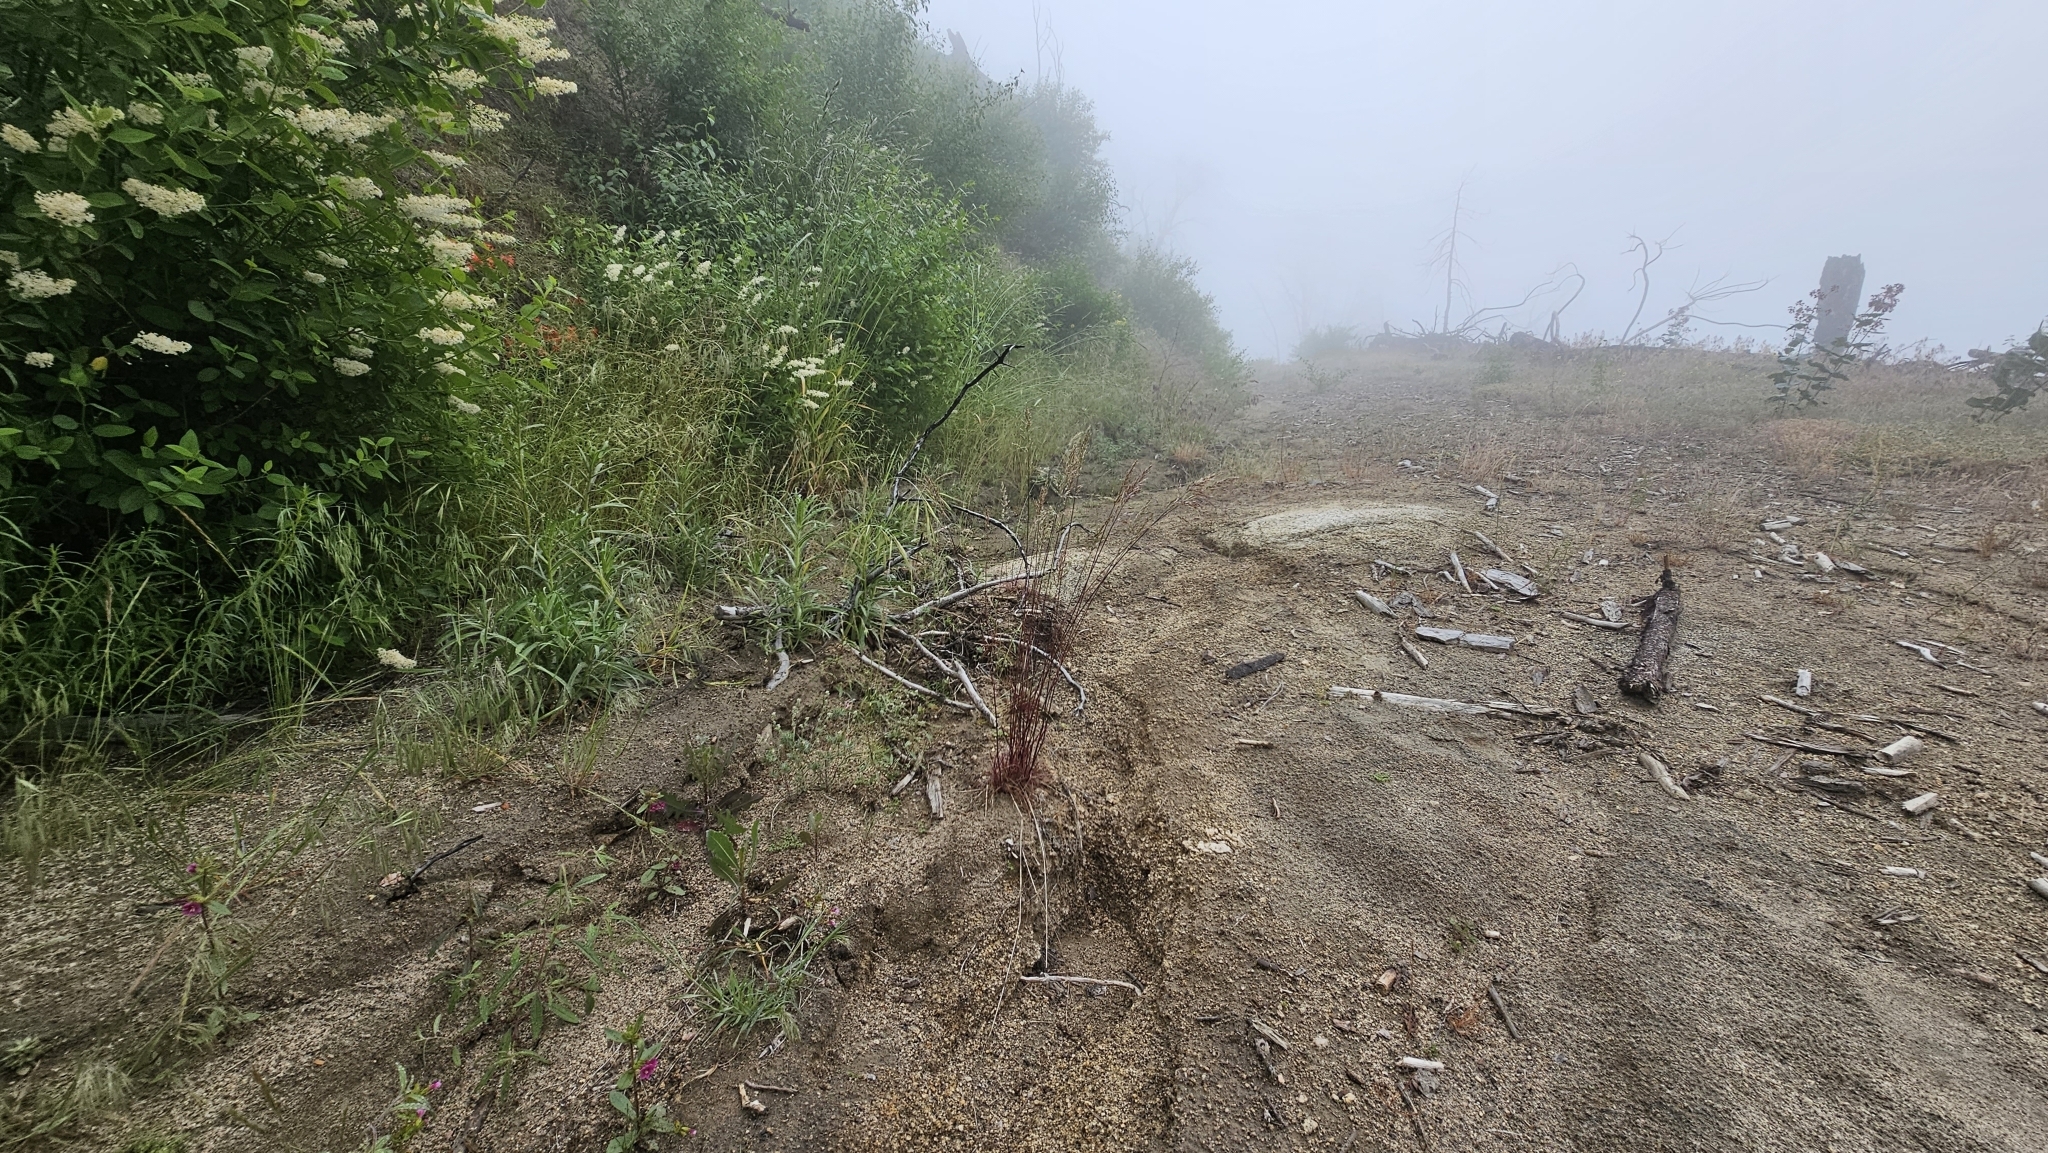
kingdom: Plantae
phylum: Tracheophyta
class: Magnoliopsida
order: Lamiales
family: Phrymaceae
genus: Diplacus
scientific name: Diplacus bolanderi
